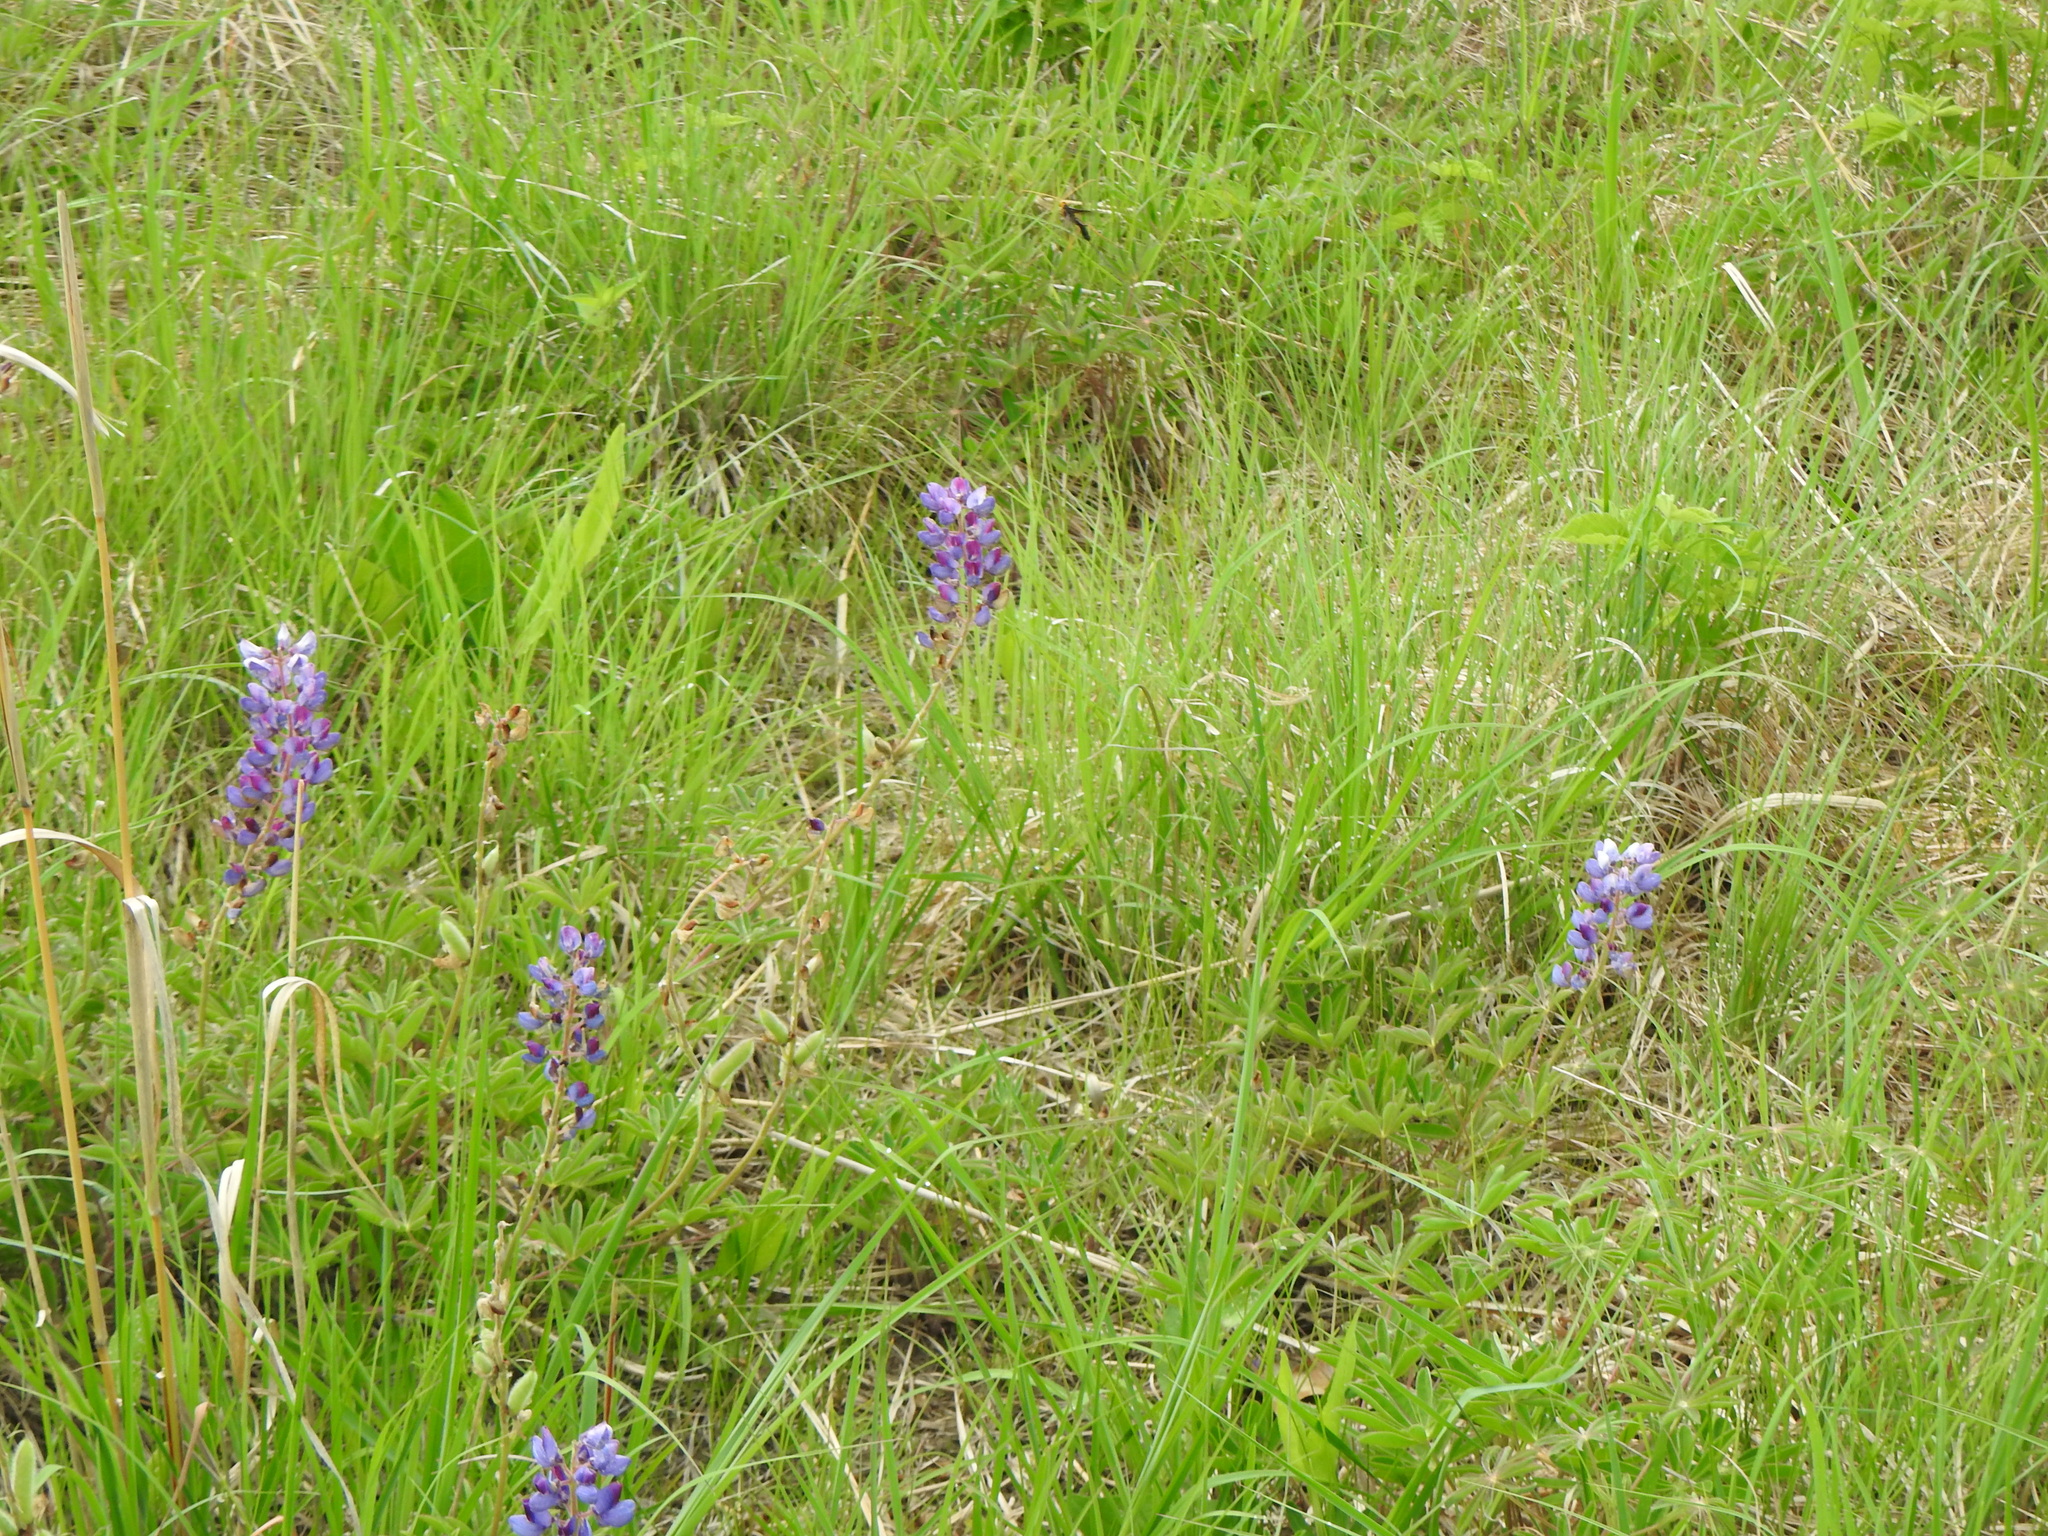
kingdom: Plantae
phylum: Tracheophyta
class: Magnoliopsida
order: Fabales
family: Fabaceae
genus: Lupinus
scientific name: Lupinus perennis
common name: Sundial lupine
